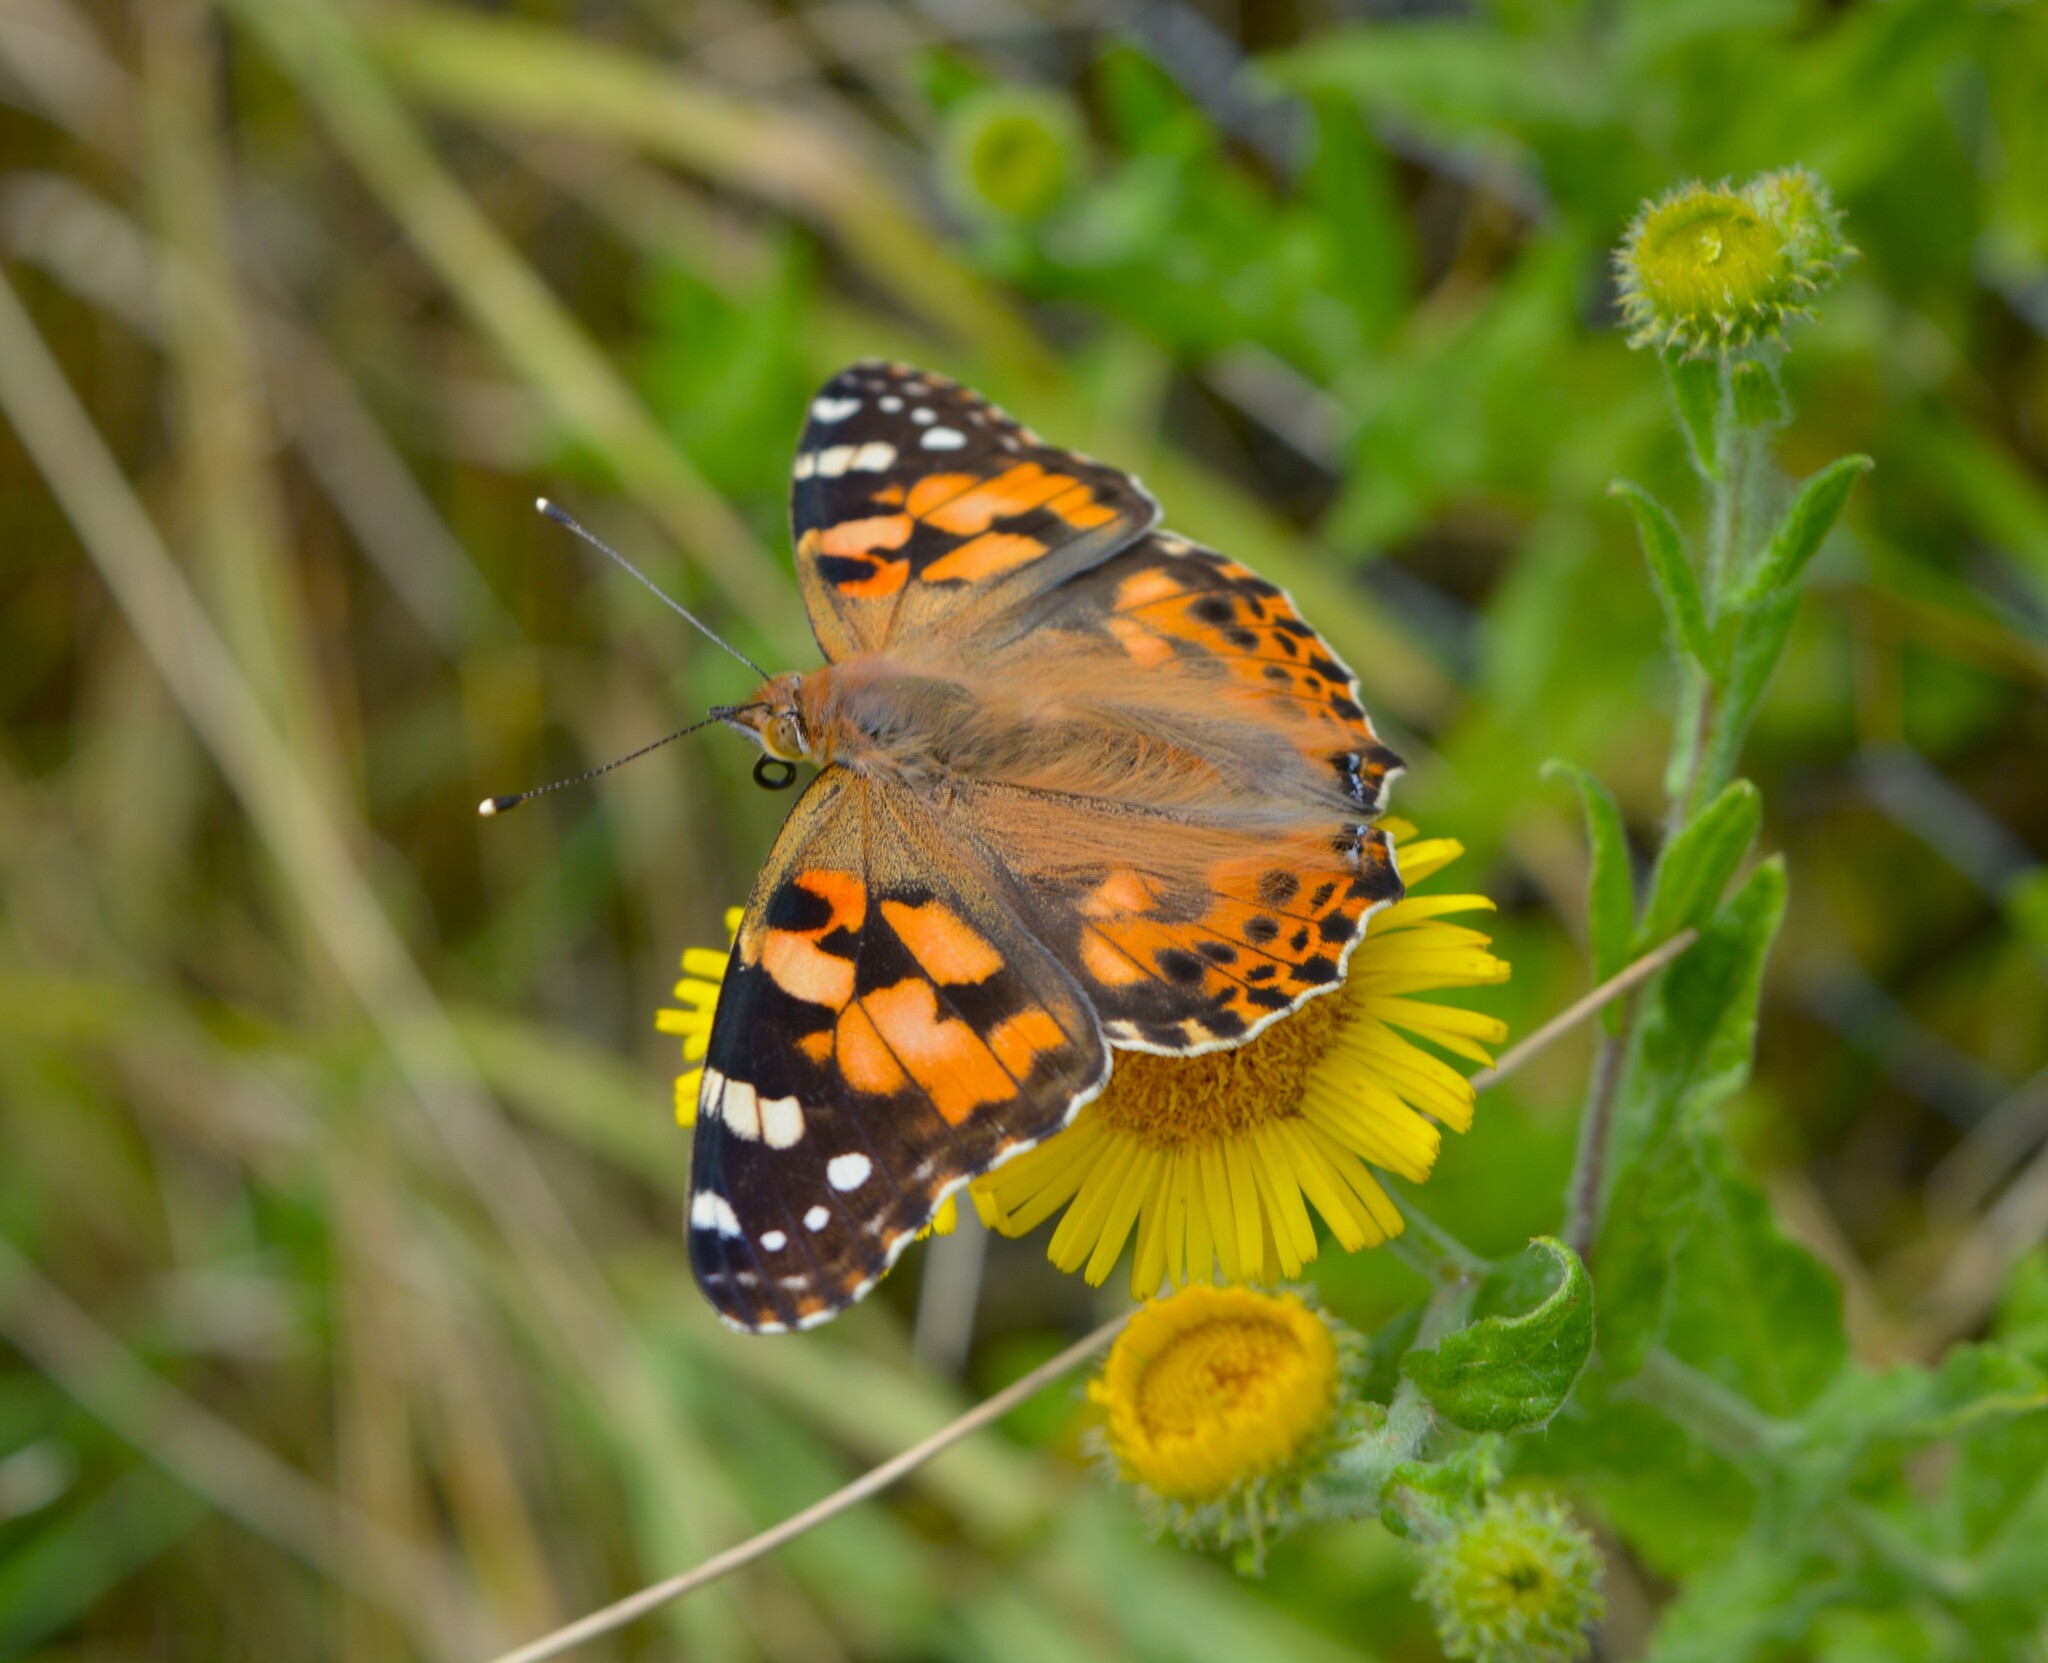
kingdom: Animalia
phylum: Arthropoda
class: Insecta
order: Lepidoptera
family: Nymphalidae
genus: Vanessa
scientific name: Vanessa cardui
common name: Painted lady
